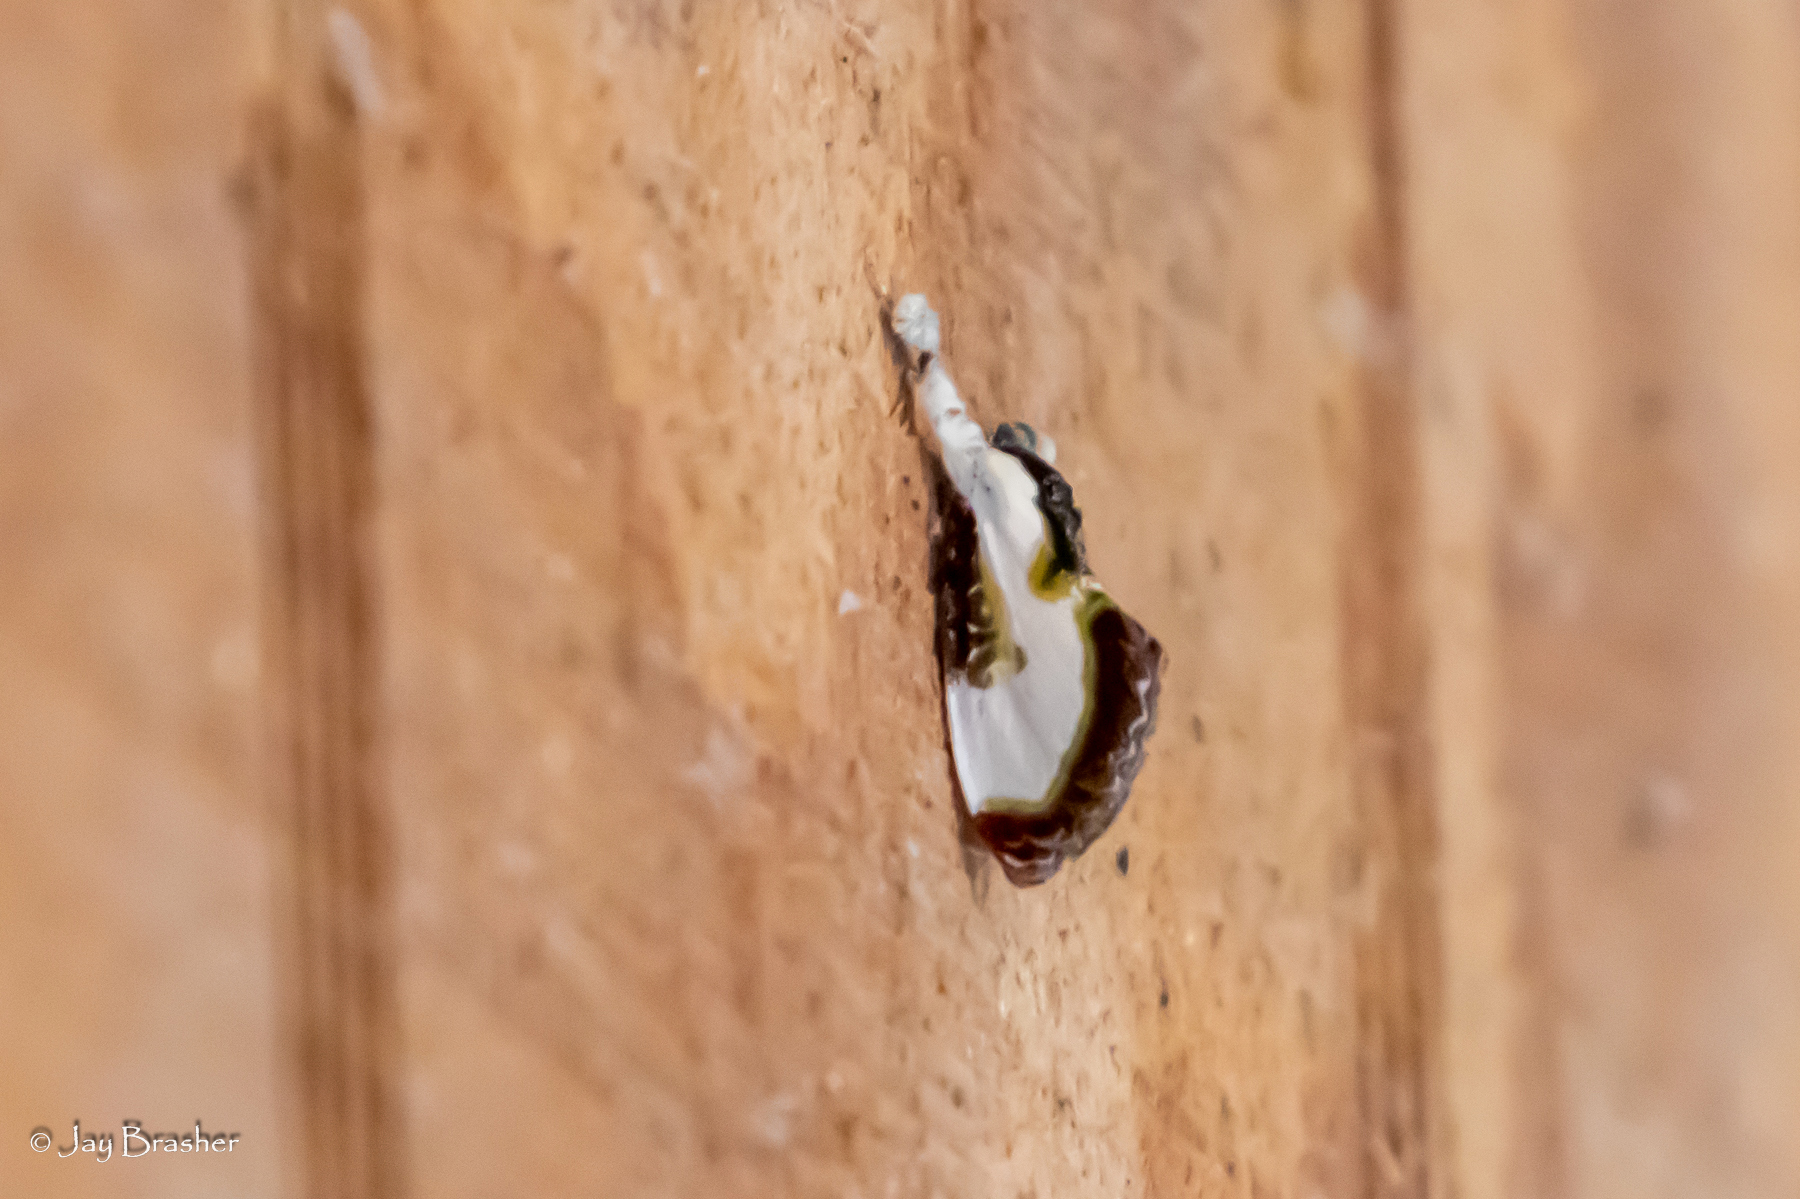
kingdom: Animalia
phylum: Arthropoda
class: Insecta
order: Lepidoptera
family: Noctuidae
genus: Eudryas
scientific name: Eudryas grata
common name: Beautiful wood-nymph
